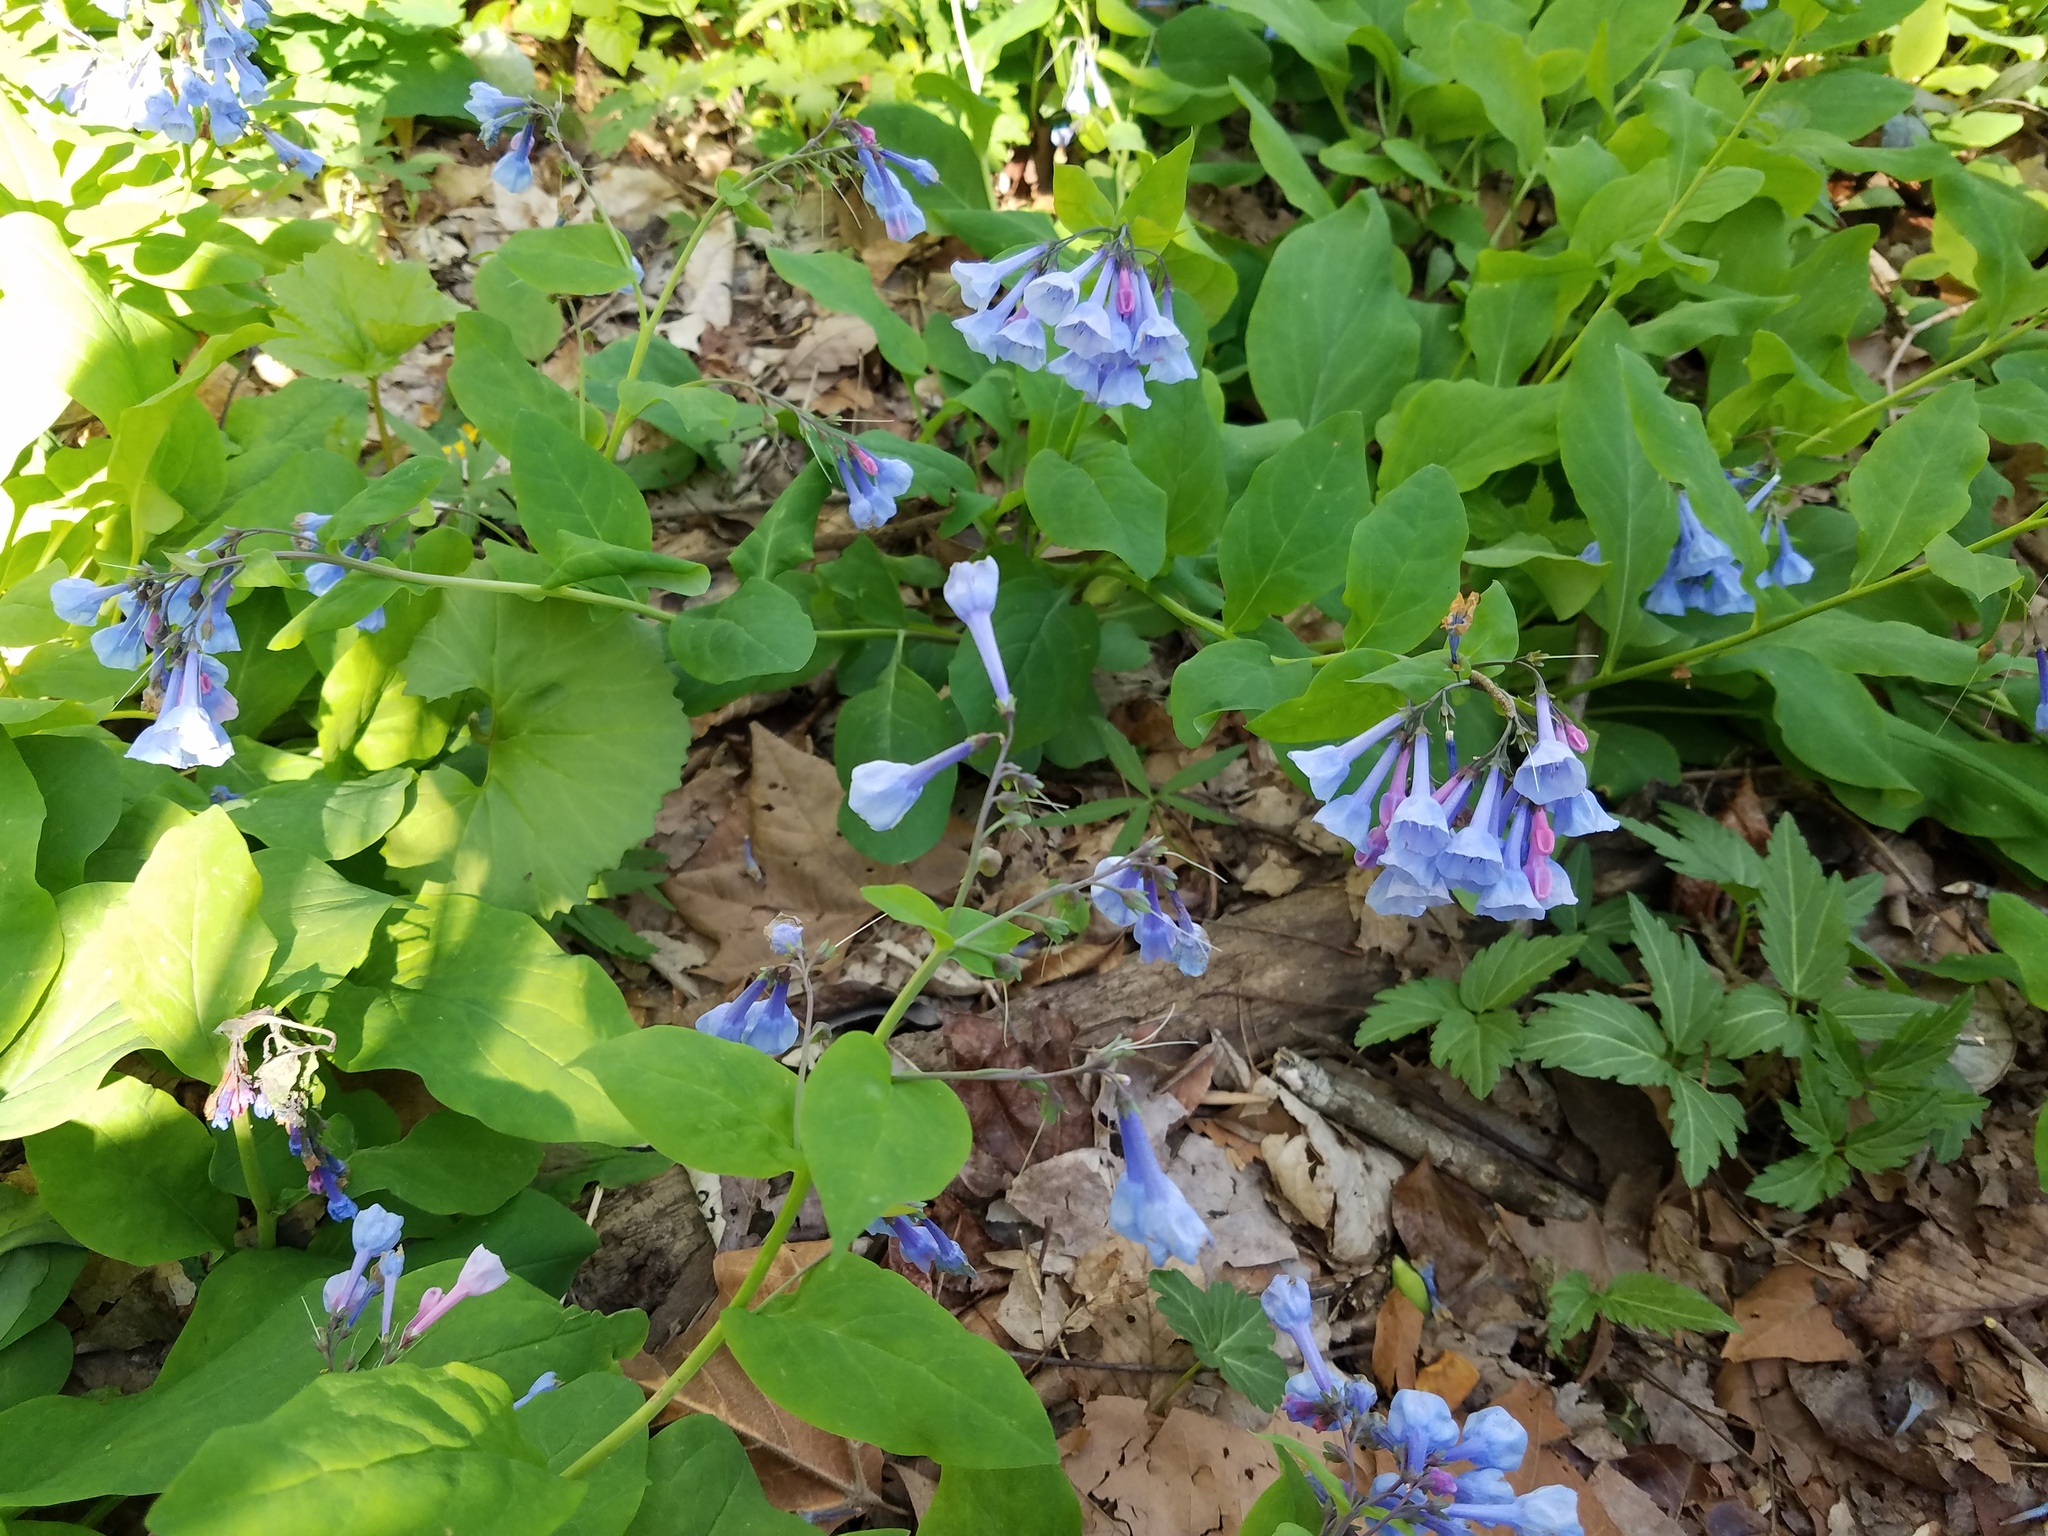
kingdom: Plantae
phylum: Tracheophyta
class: Magnoliopsida
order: Boraginales
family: Boraginaceae
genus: Mertensia
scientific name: Mertensia virginica
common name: Virginia bluebells
